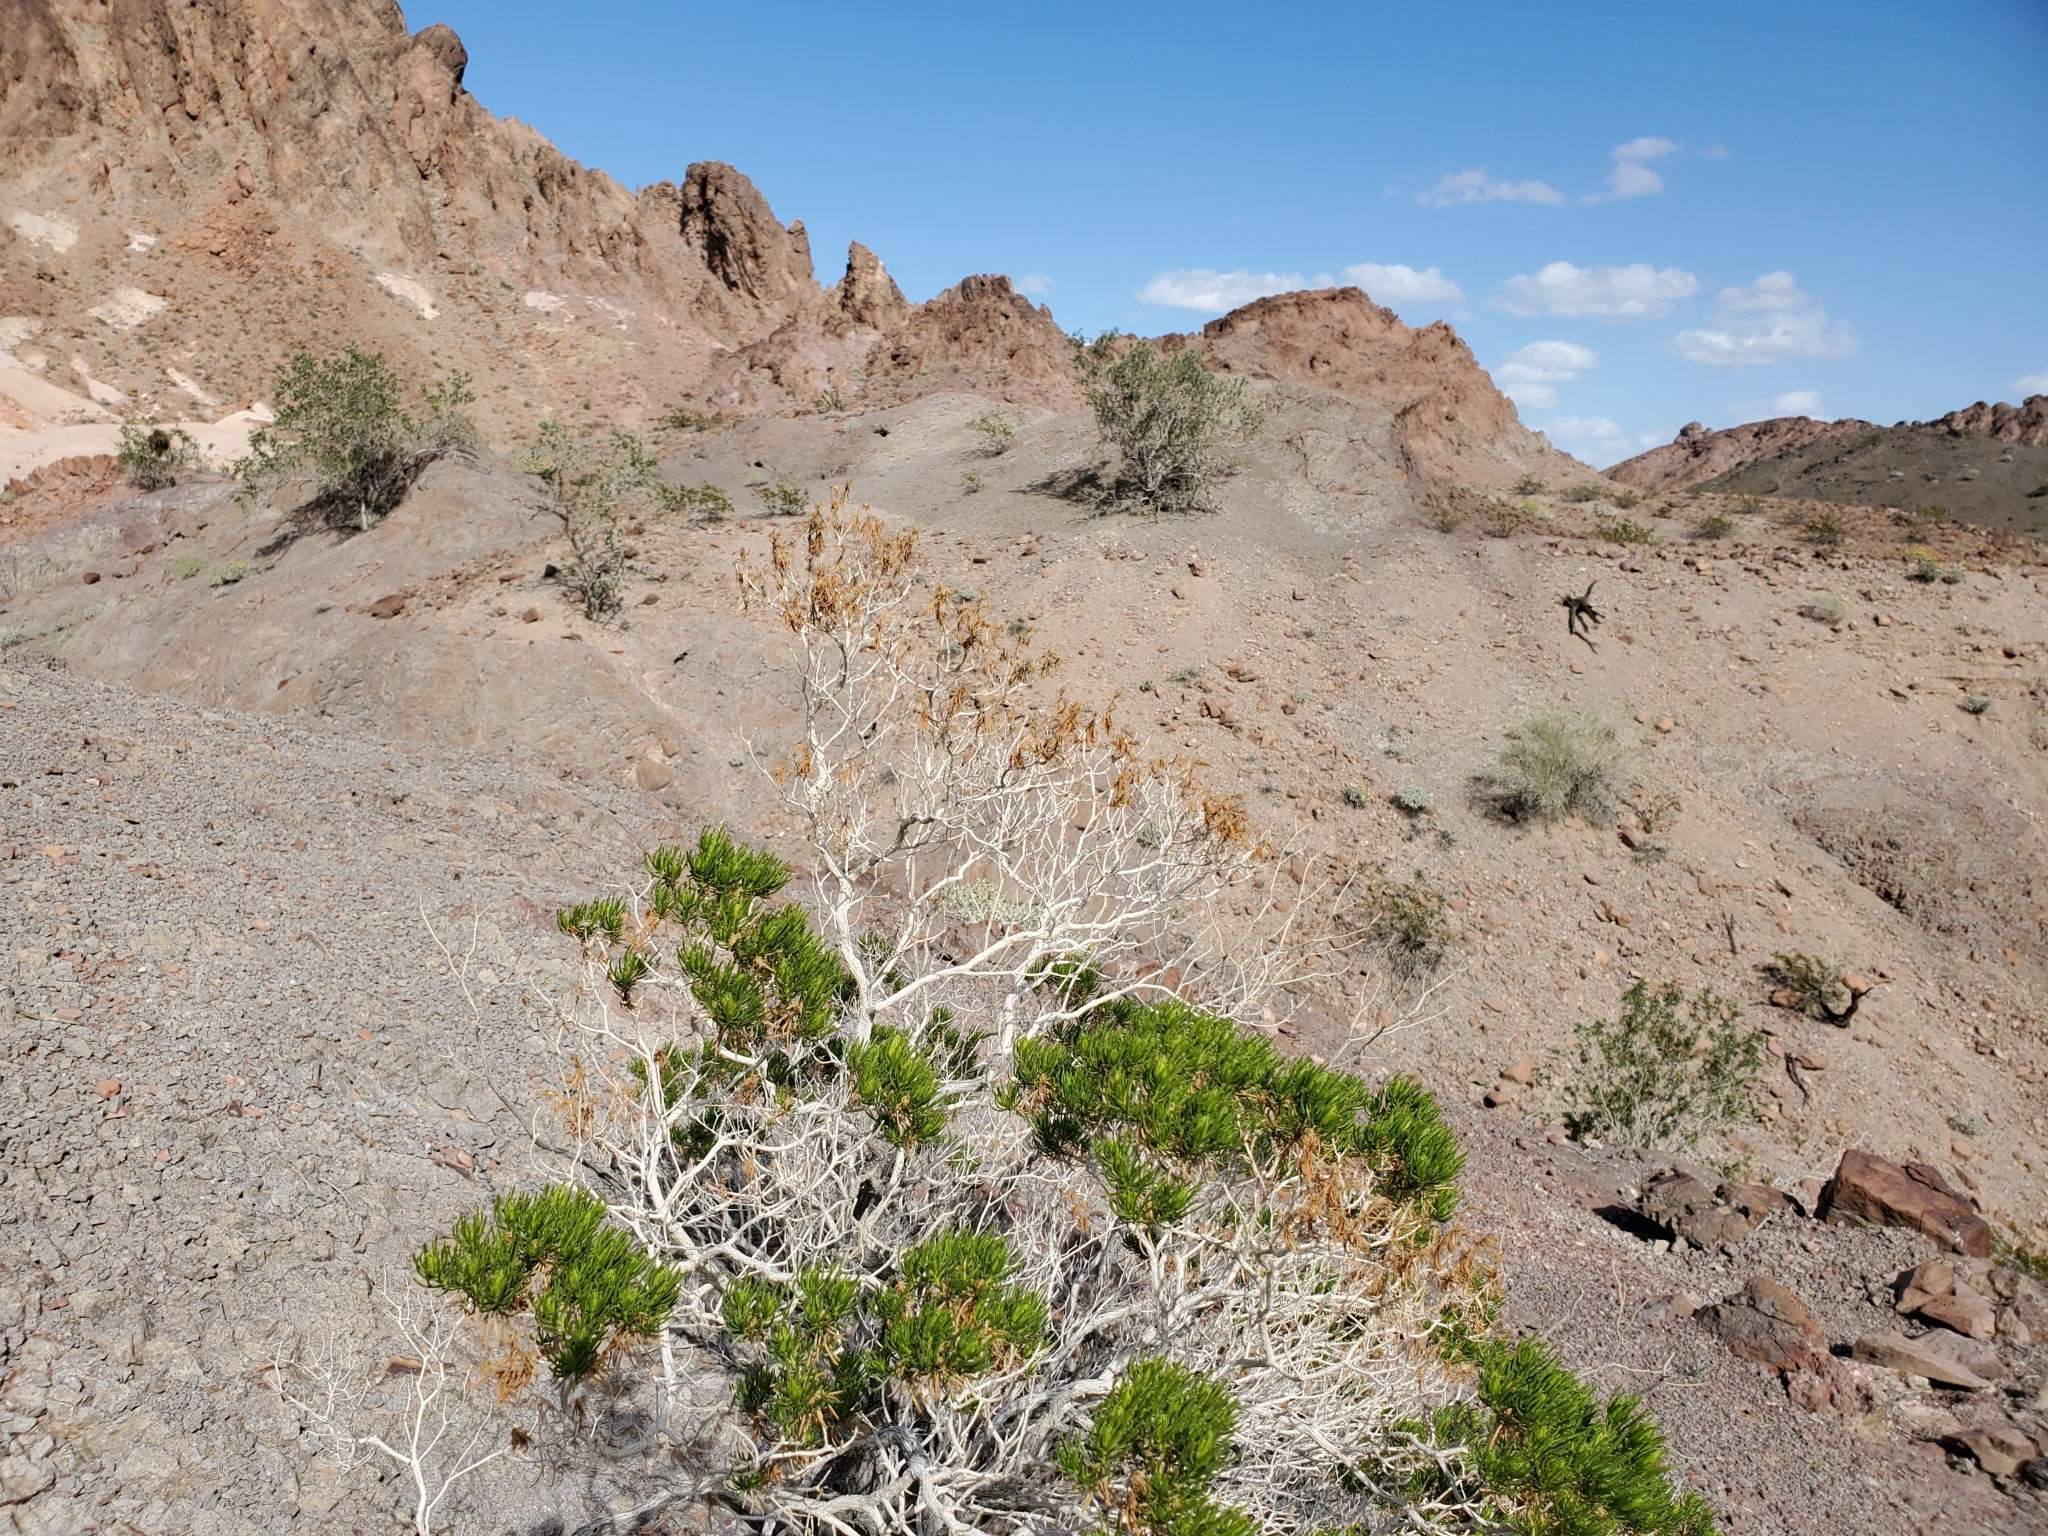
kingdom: Plantae
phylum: Tracheophyta
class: Magnoliopsida
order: Asterales
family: Asteraceae
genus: Peucephyllum
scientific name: Peucephyllum schottii
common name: Pygmy-cedar
